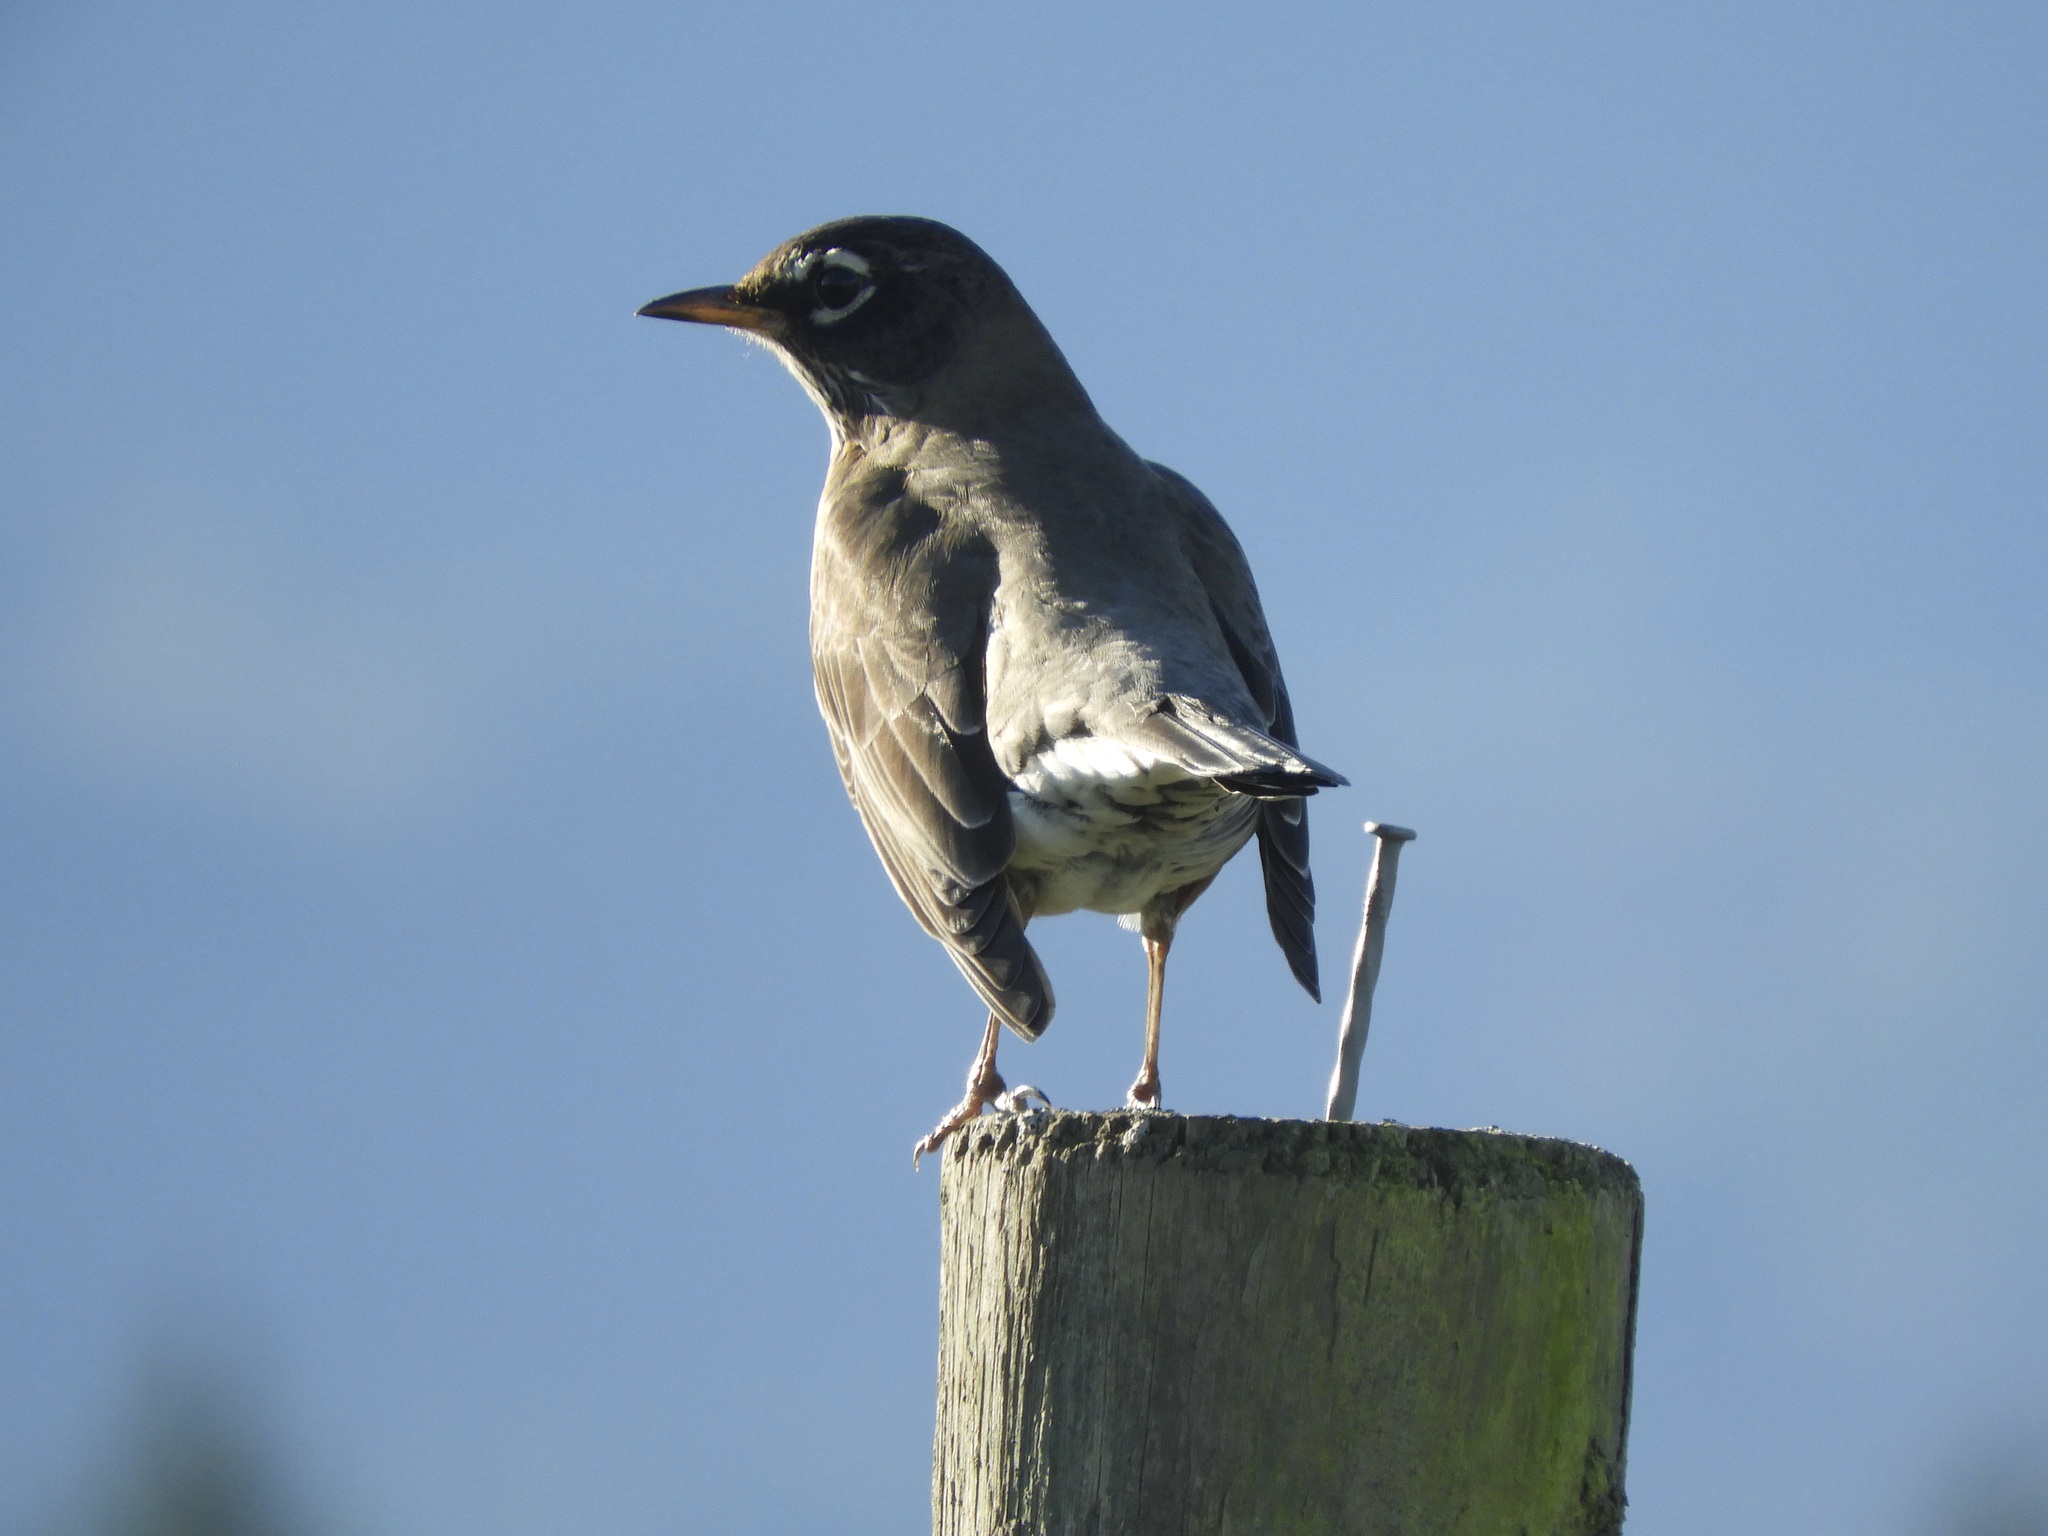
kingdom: Animalia
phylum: Chordata
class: Aves
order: Passeriformes
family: Turdidae
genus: Turdus
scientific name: Turdus migratorius
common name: American robin
